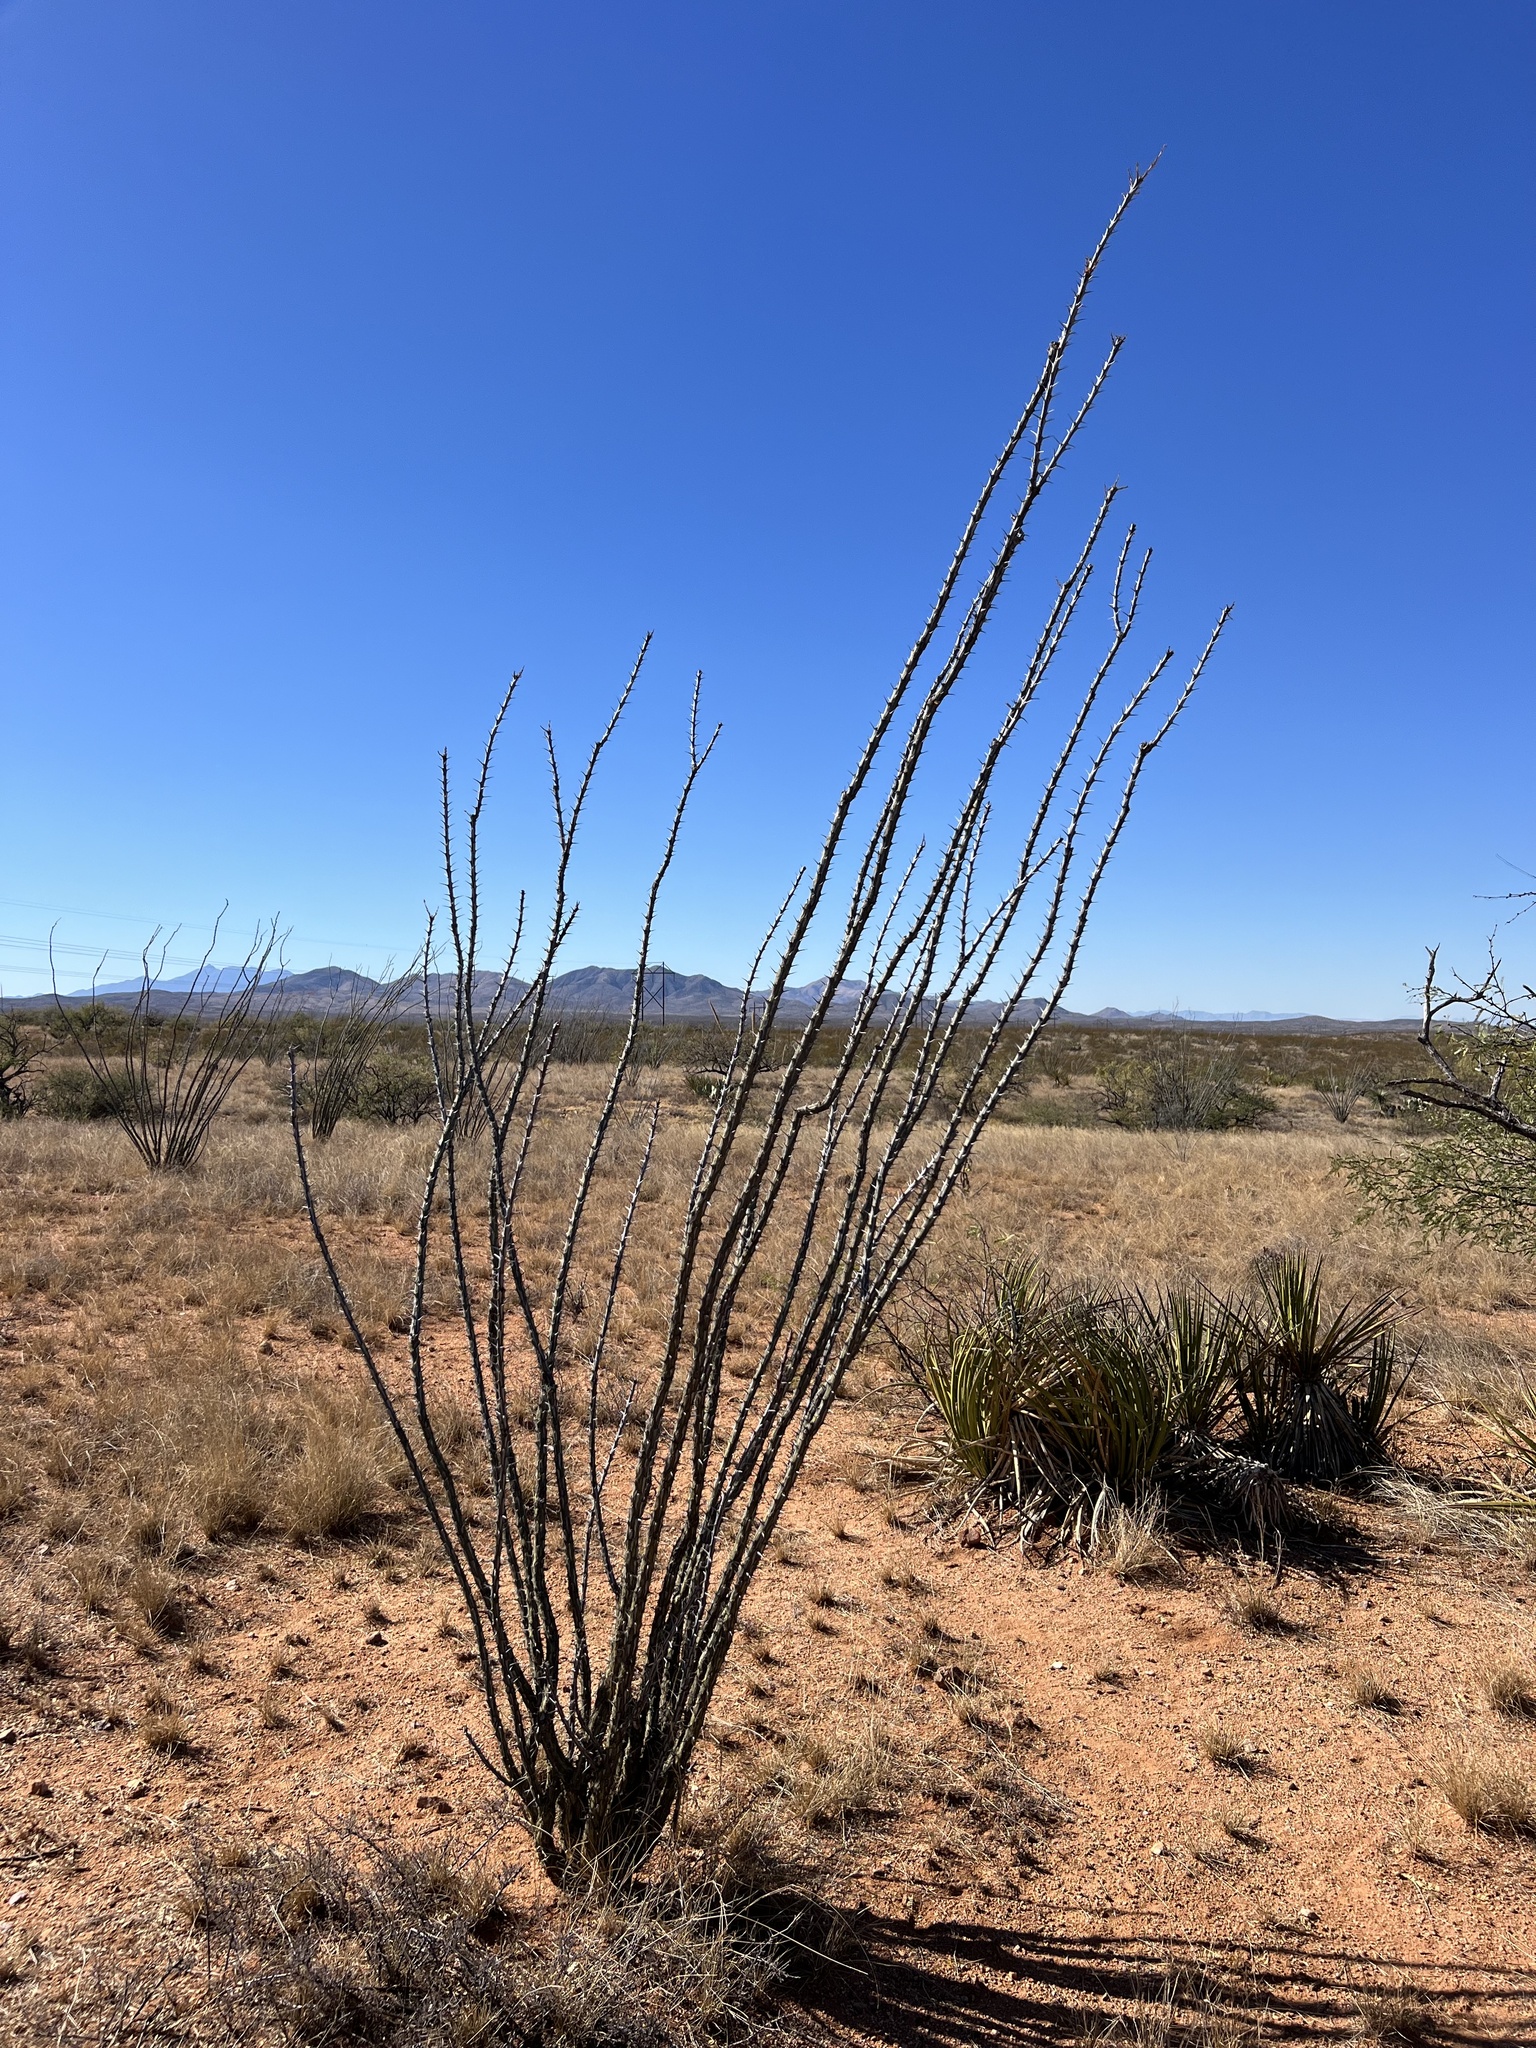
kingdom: Plantae
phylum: Tracheophyta
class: Magnoliopsida
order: Ericales
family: Fouquieriaceae
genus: Fouquieria
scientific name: Fouquieria splendens
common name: Vine-cactus
